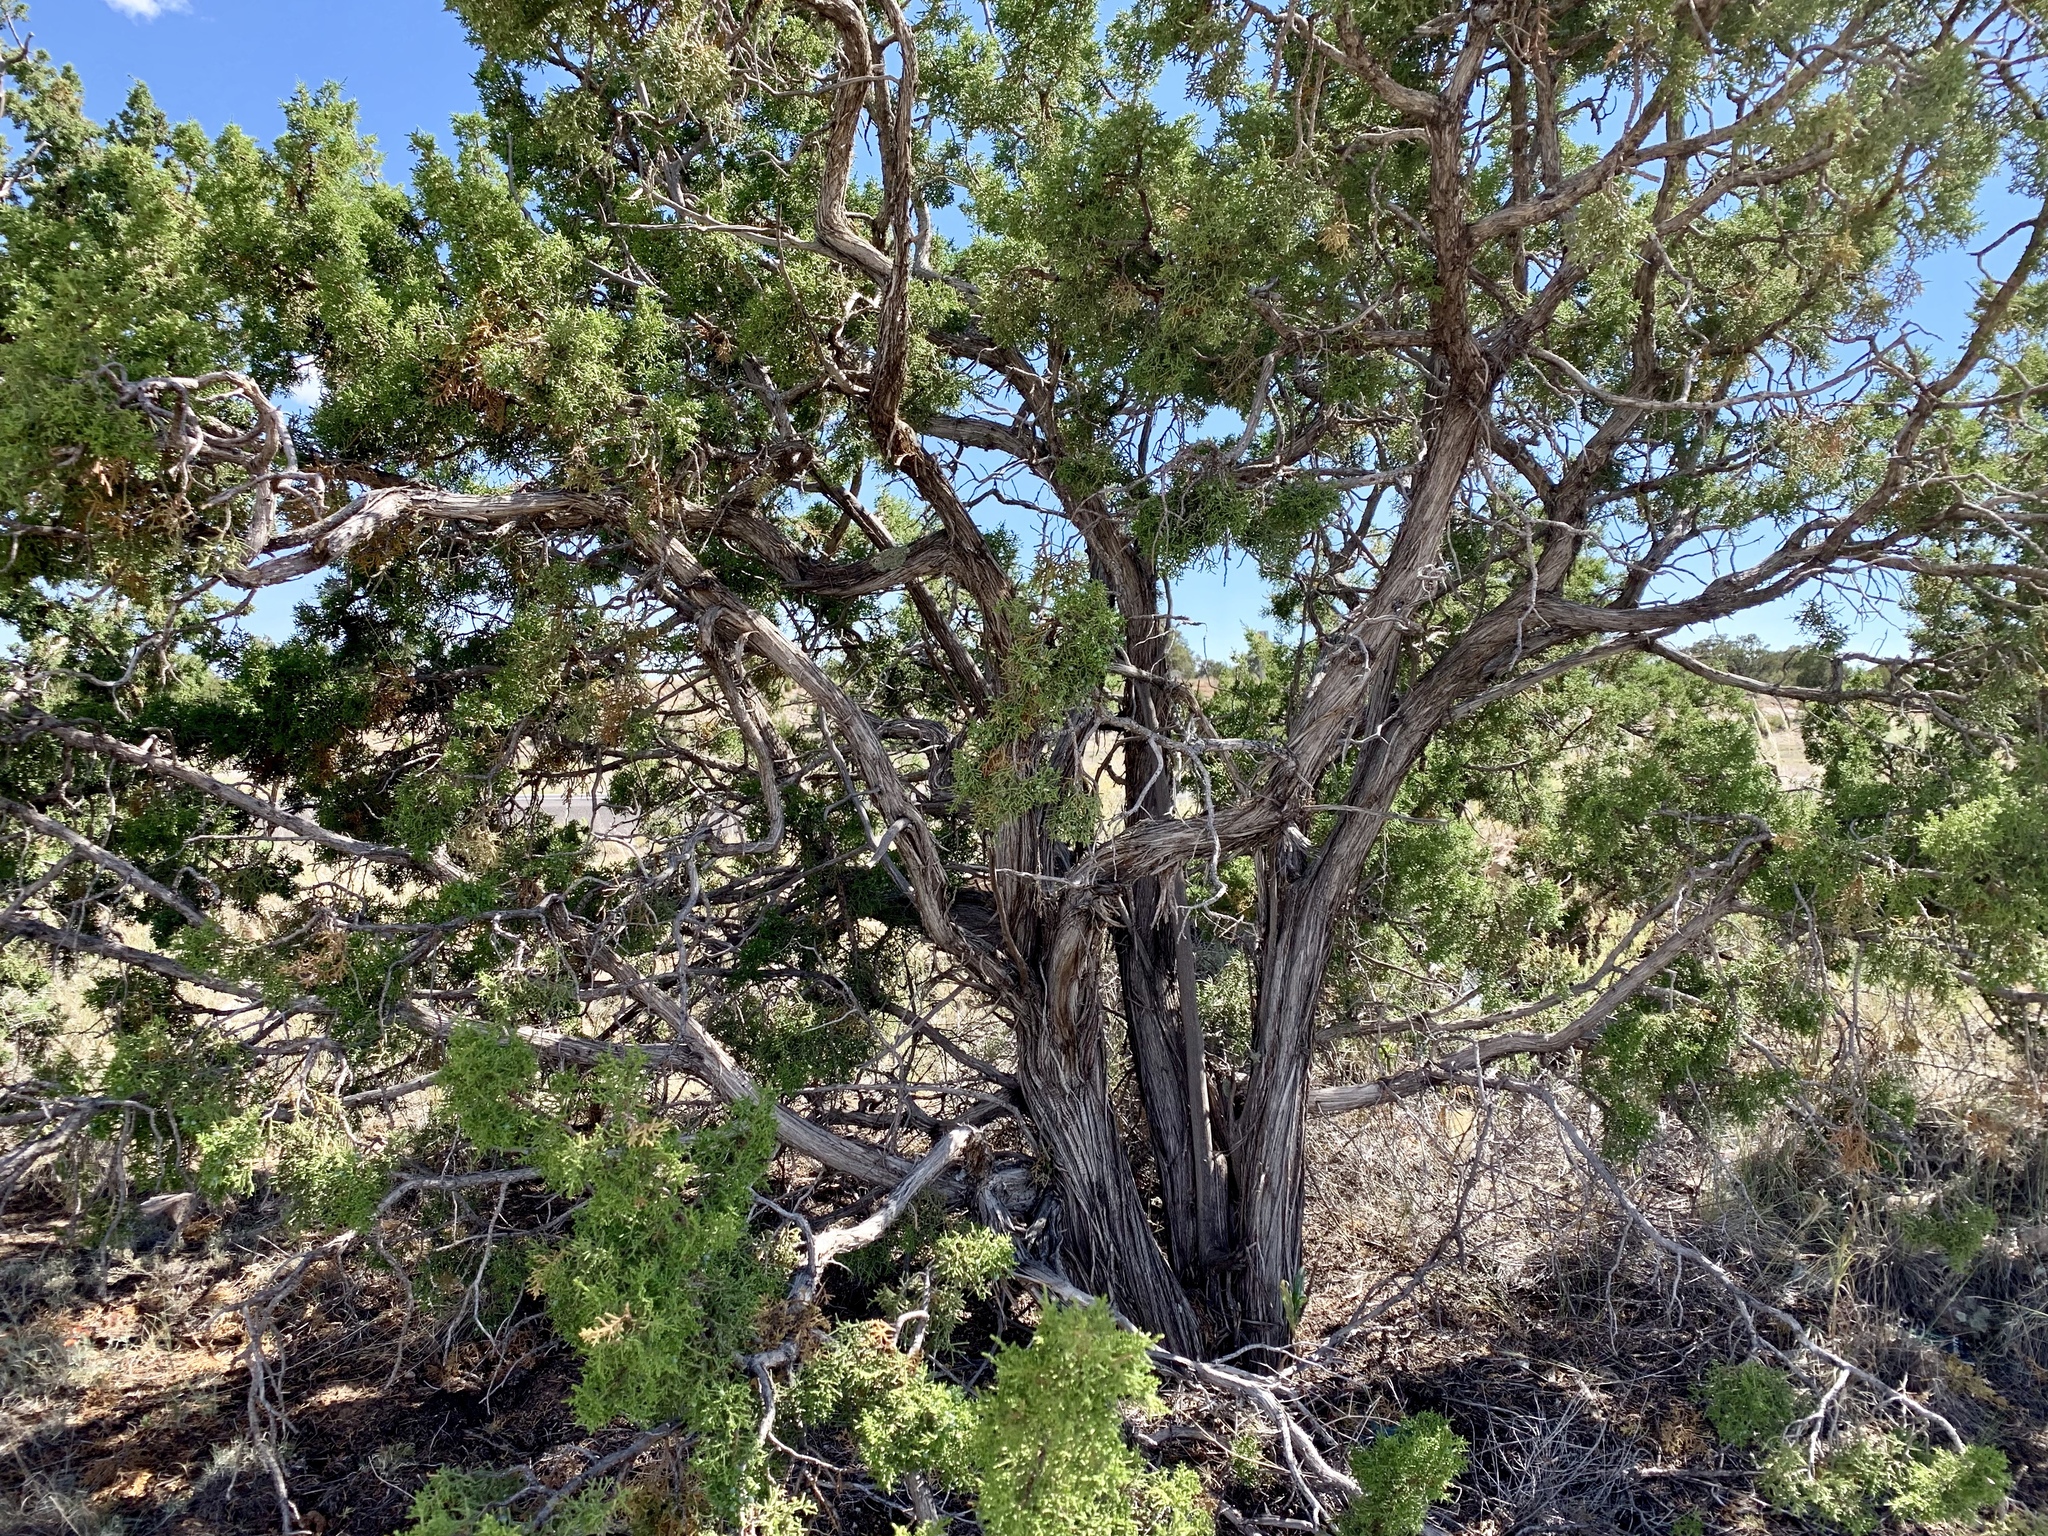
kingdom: Plantae
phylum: Tracheophyta
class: Pinopsida
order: Pinales
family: Cupressaceae
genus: Juniperus
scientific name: Juniperus monosperma
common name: One-seed juniper
